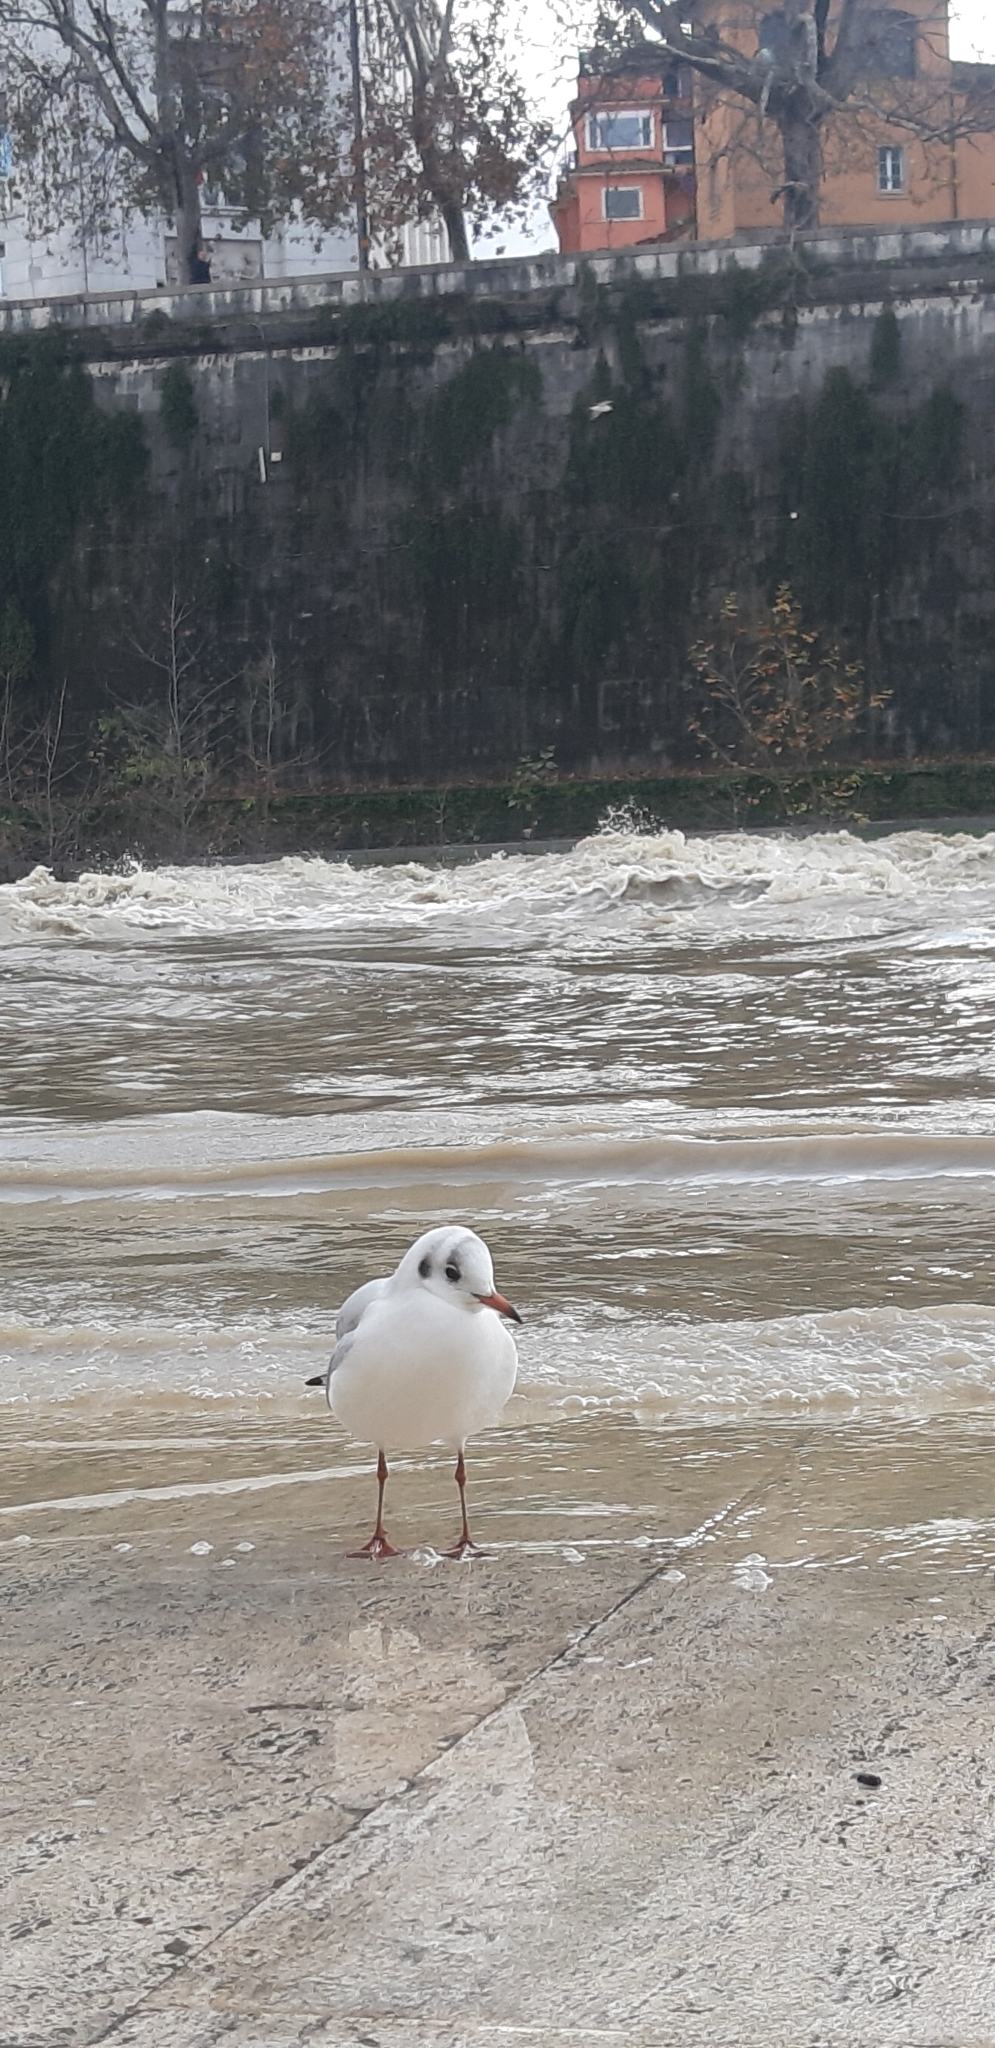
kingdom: Animalia
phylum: Chordata
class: Aves
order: Charadriiformes
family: Laridae
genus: Chroicocephalus
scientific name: Chroicocephalus ridibundus
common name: Black-headed gull
